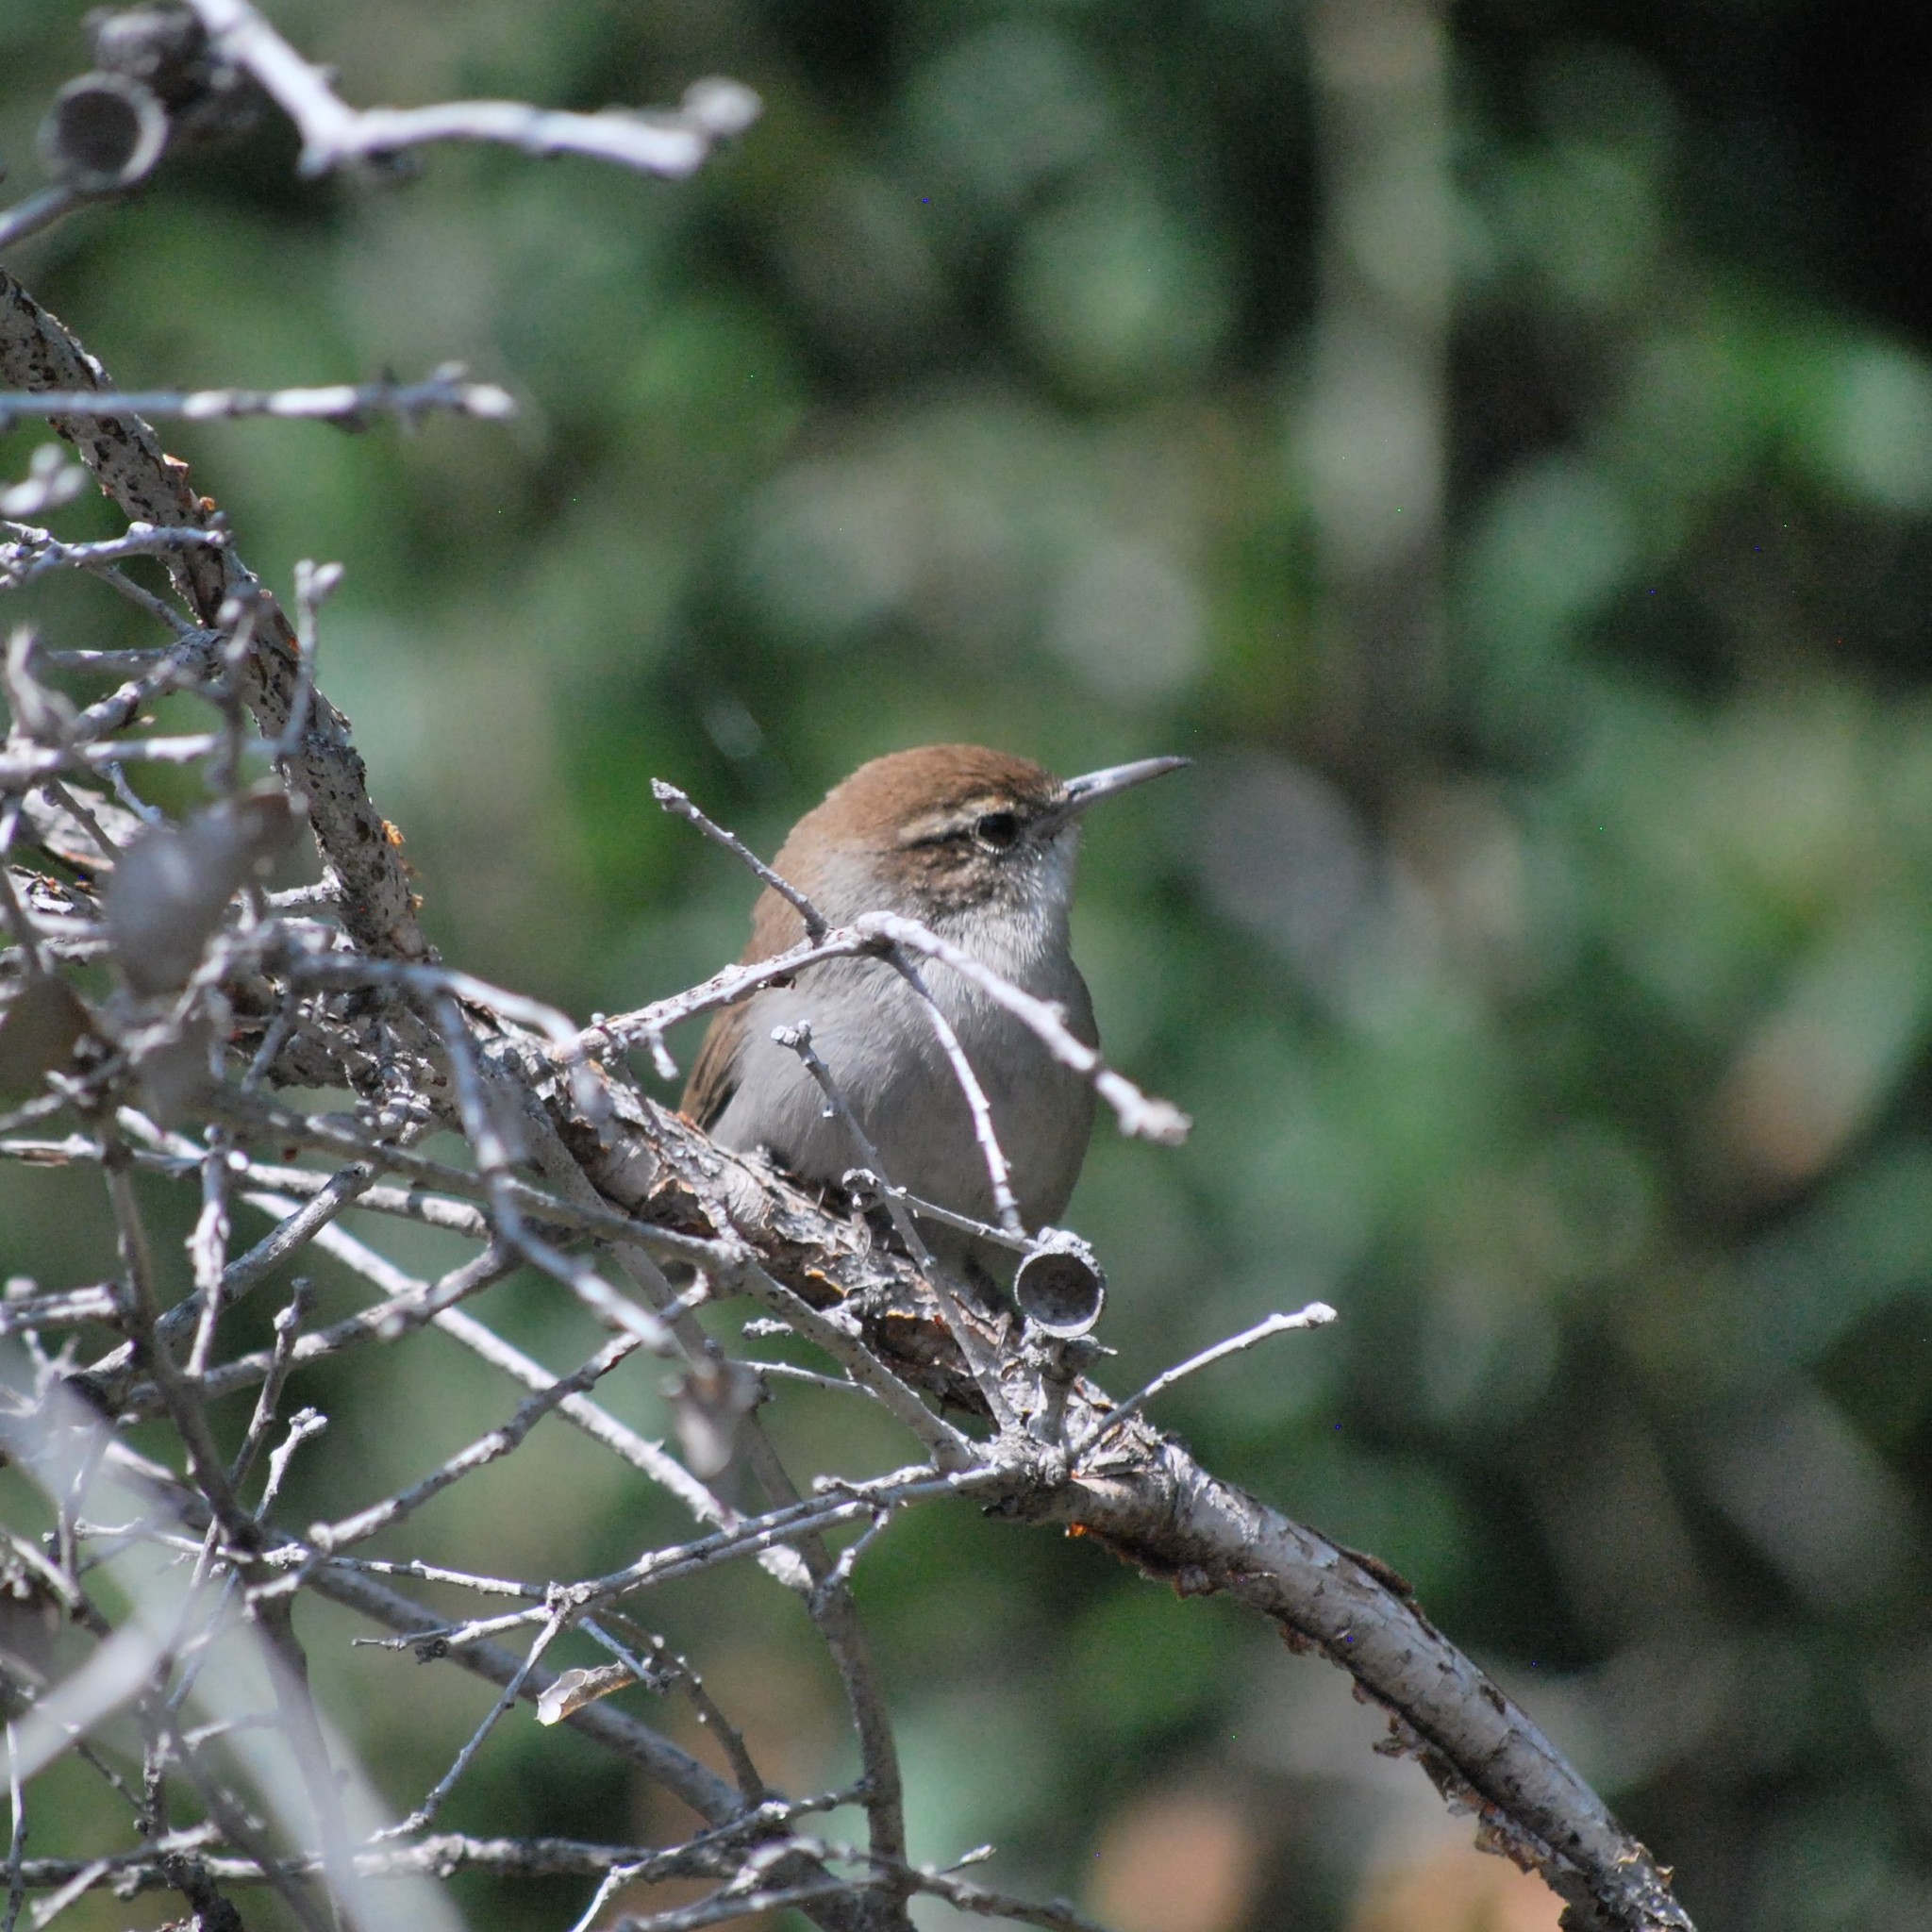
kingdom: Animalia
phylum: Chordata
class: Aves
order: Passeriformes
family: Troglodytidae
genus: Thryomanes
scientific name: Thryomanes bewickii
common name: Bewick's wren
